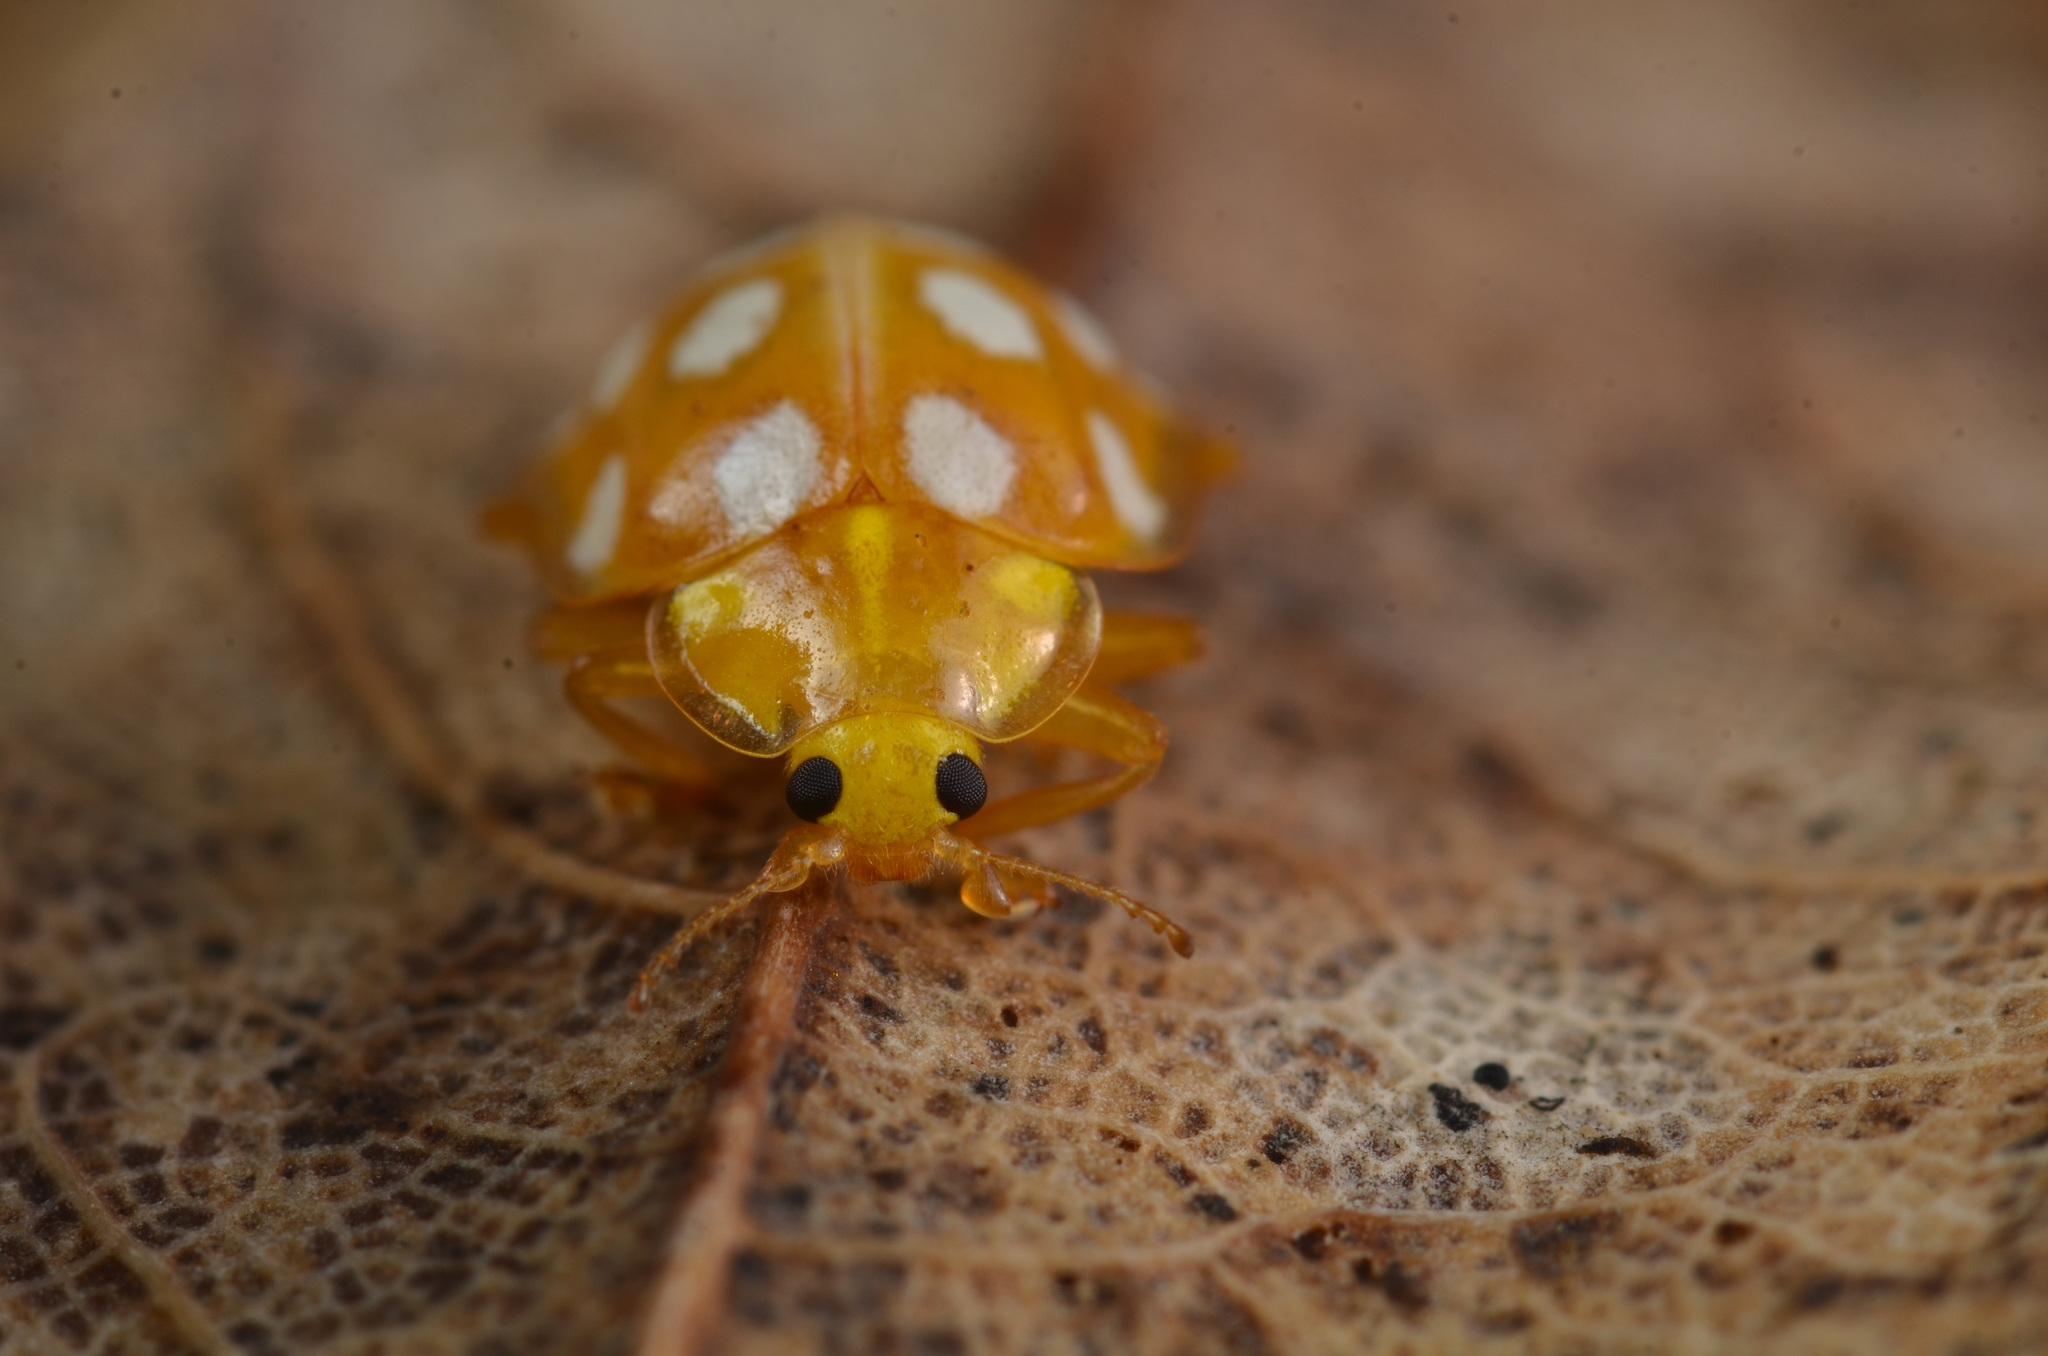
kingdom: Animalia
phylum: Arthropoda
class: Insecta
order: Coleoptera
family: Coccinellidae
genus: Halyzia
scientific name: Halyzia sedecimguttata
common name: Orange ladybird
